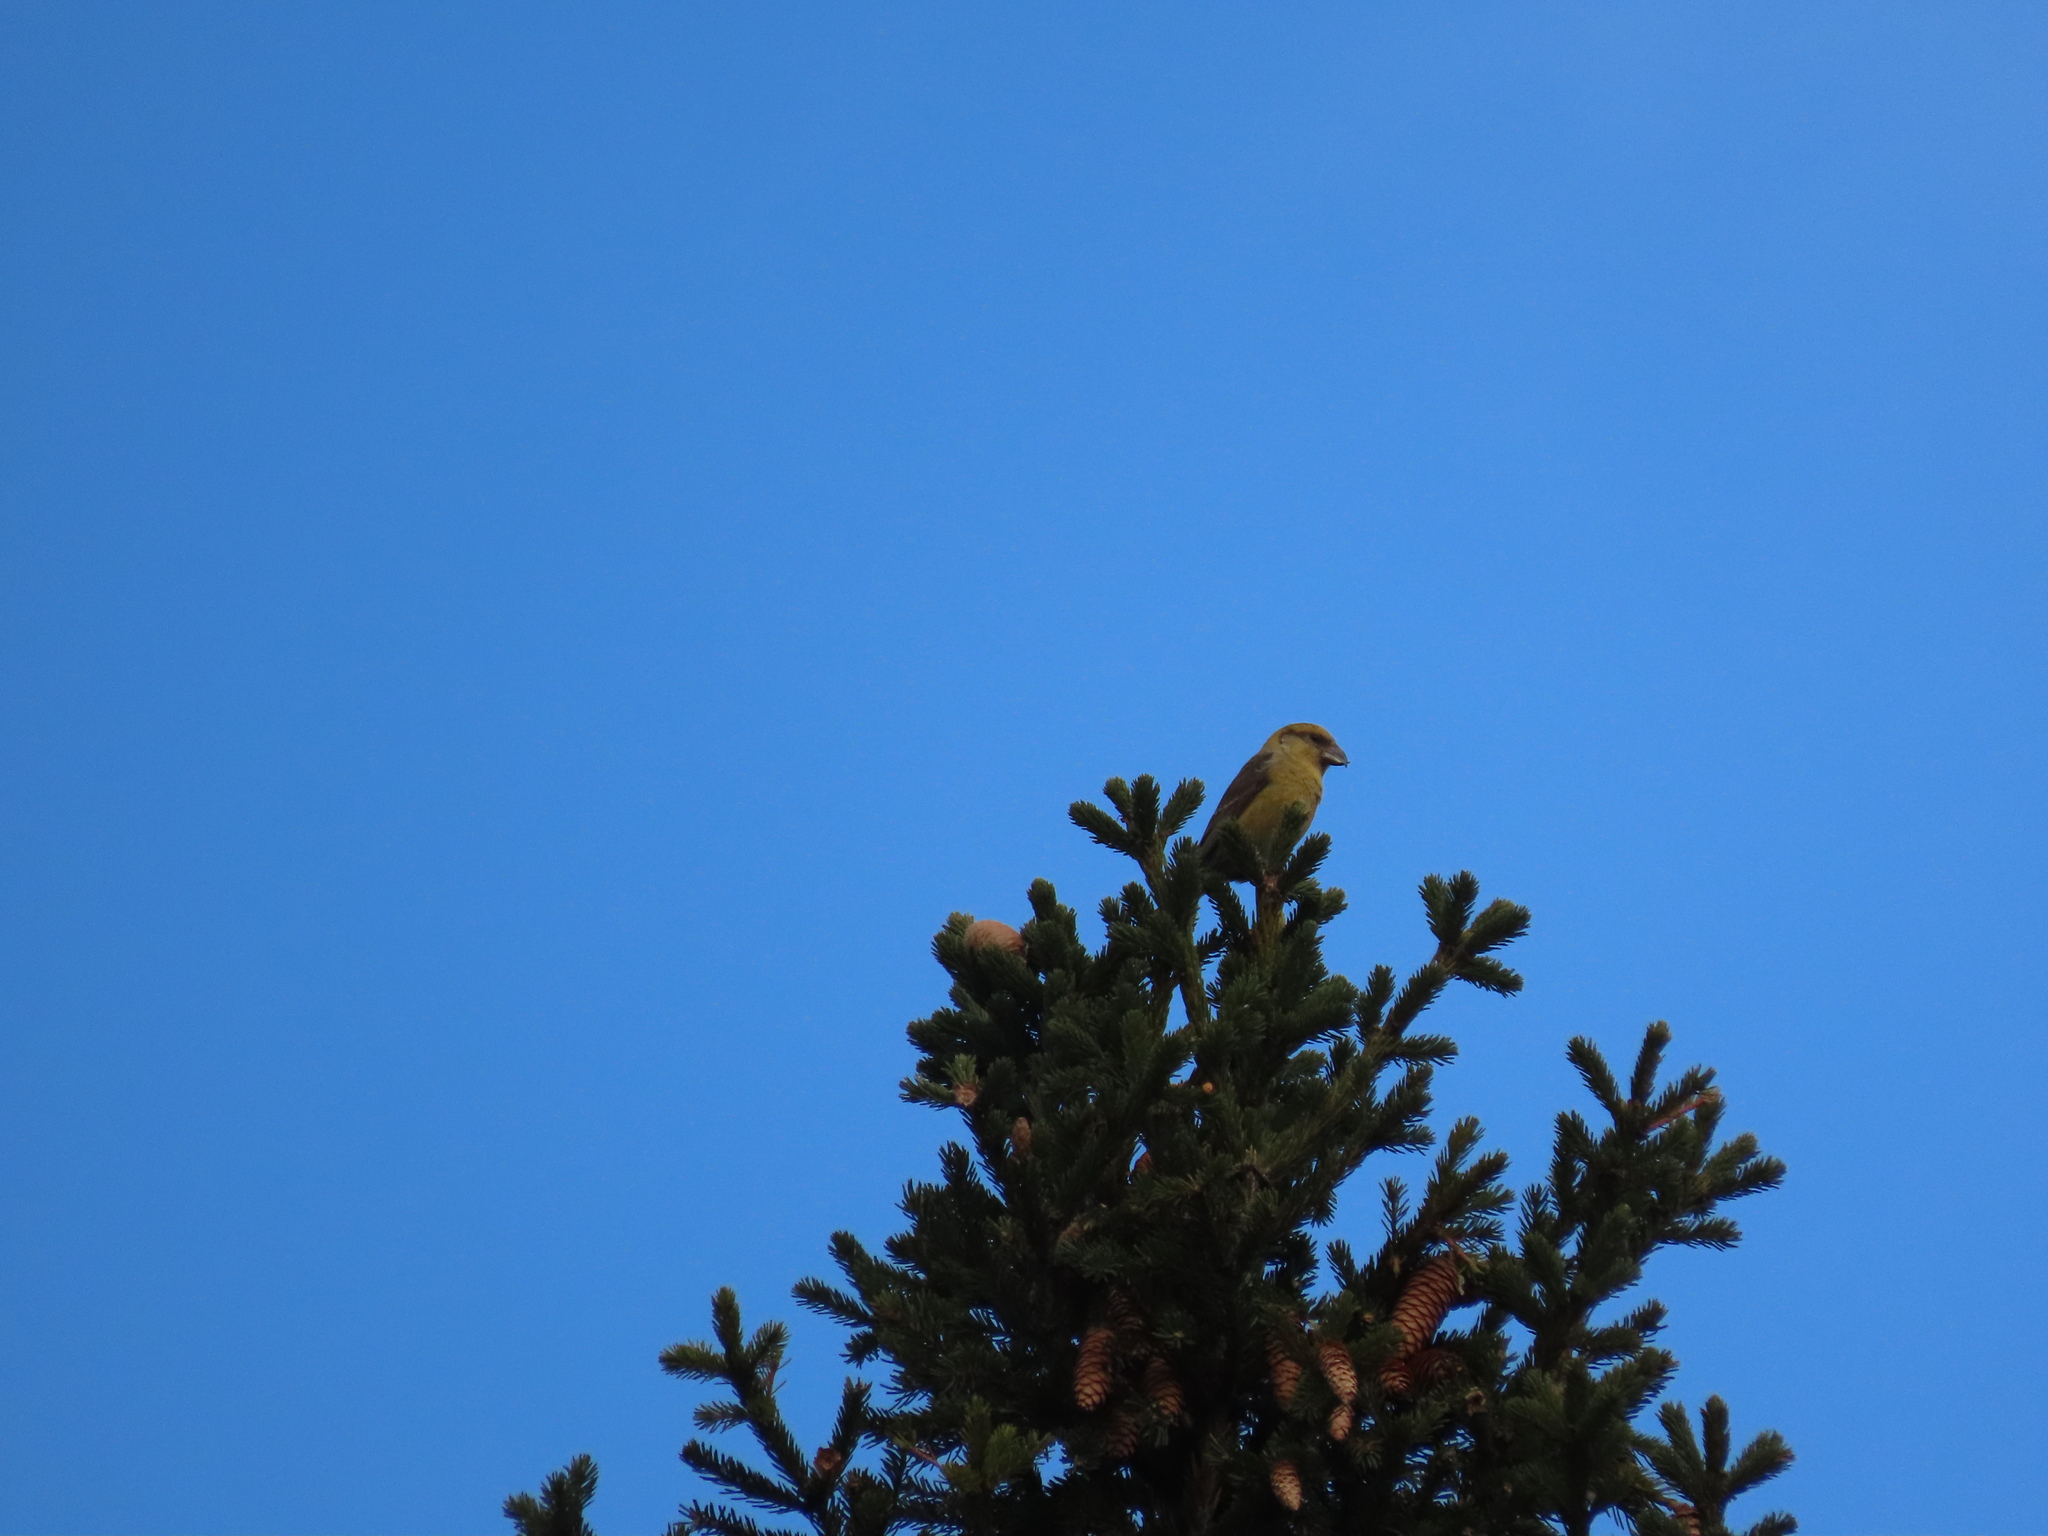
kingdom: Animalia
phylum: Chordata
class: Aves
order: Passeriformes
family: Fringillidae
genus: Loxia
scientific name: Loxia curvirostra
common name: Red crossbill
